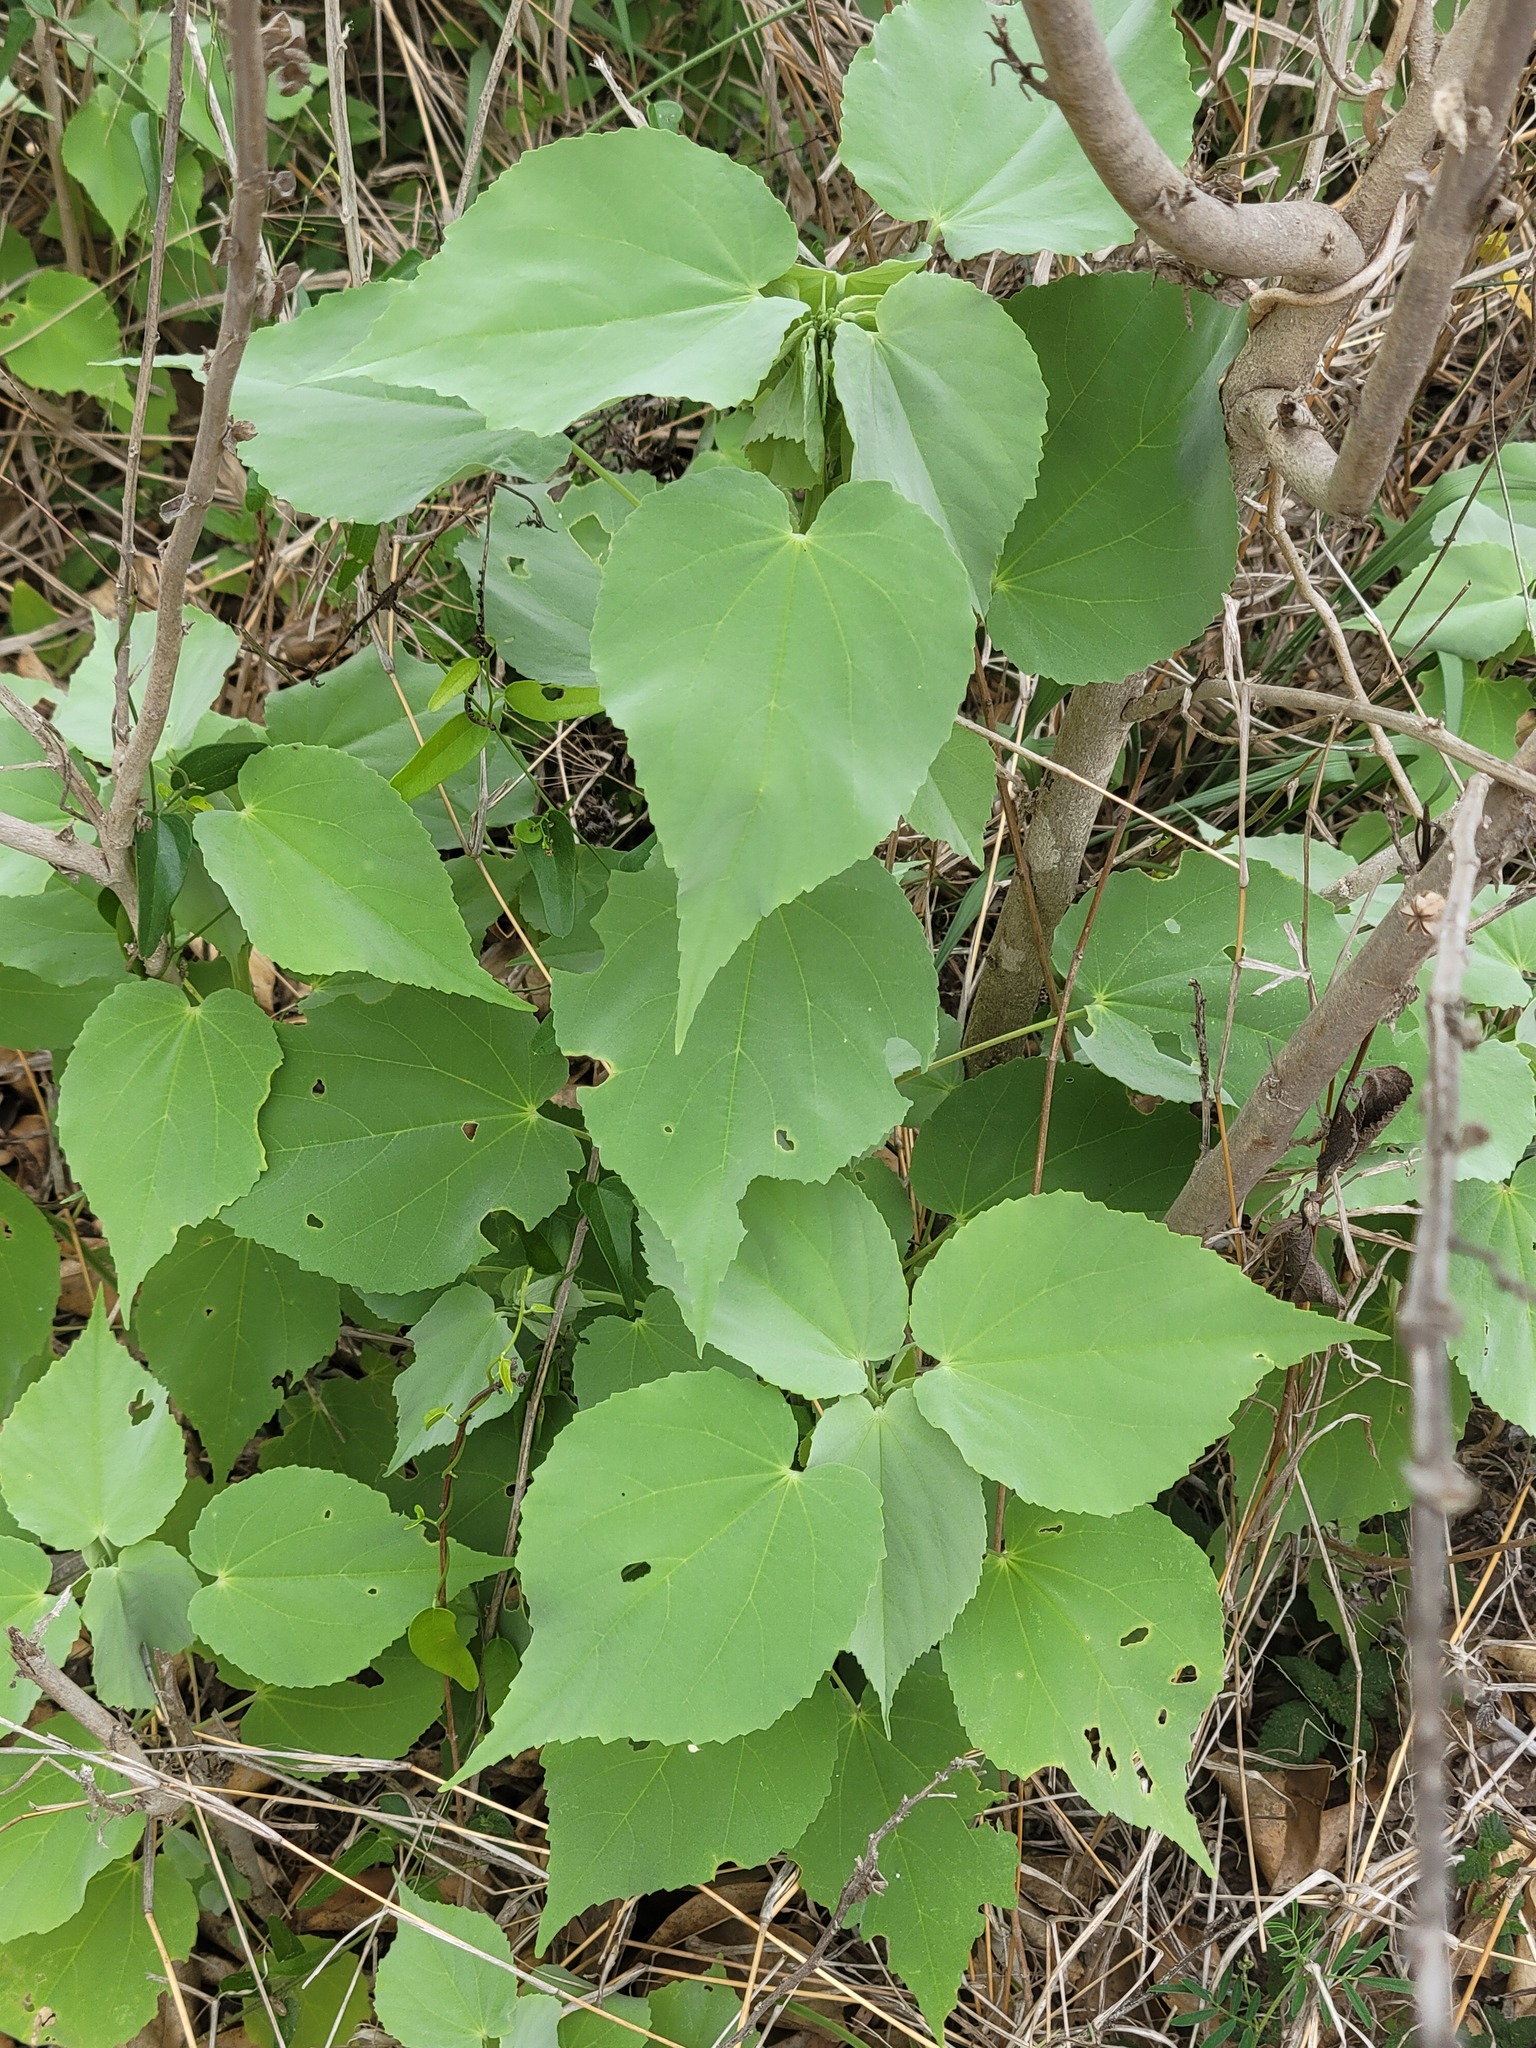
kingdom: Plantae
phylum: Tracheophyta
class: Magnoliopsida
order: Malvales
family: Malvaceae
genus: Abutilon
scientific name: Abutilon trisulcatum
